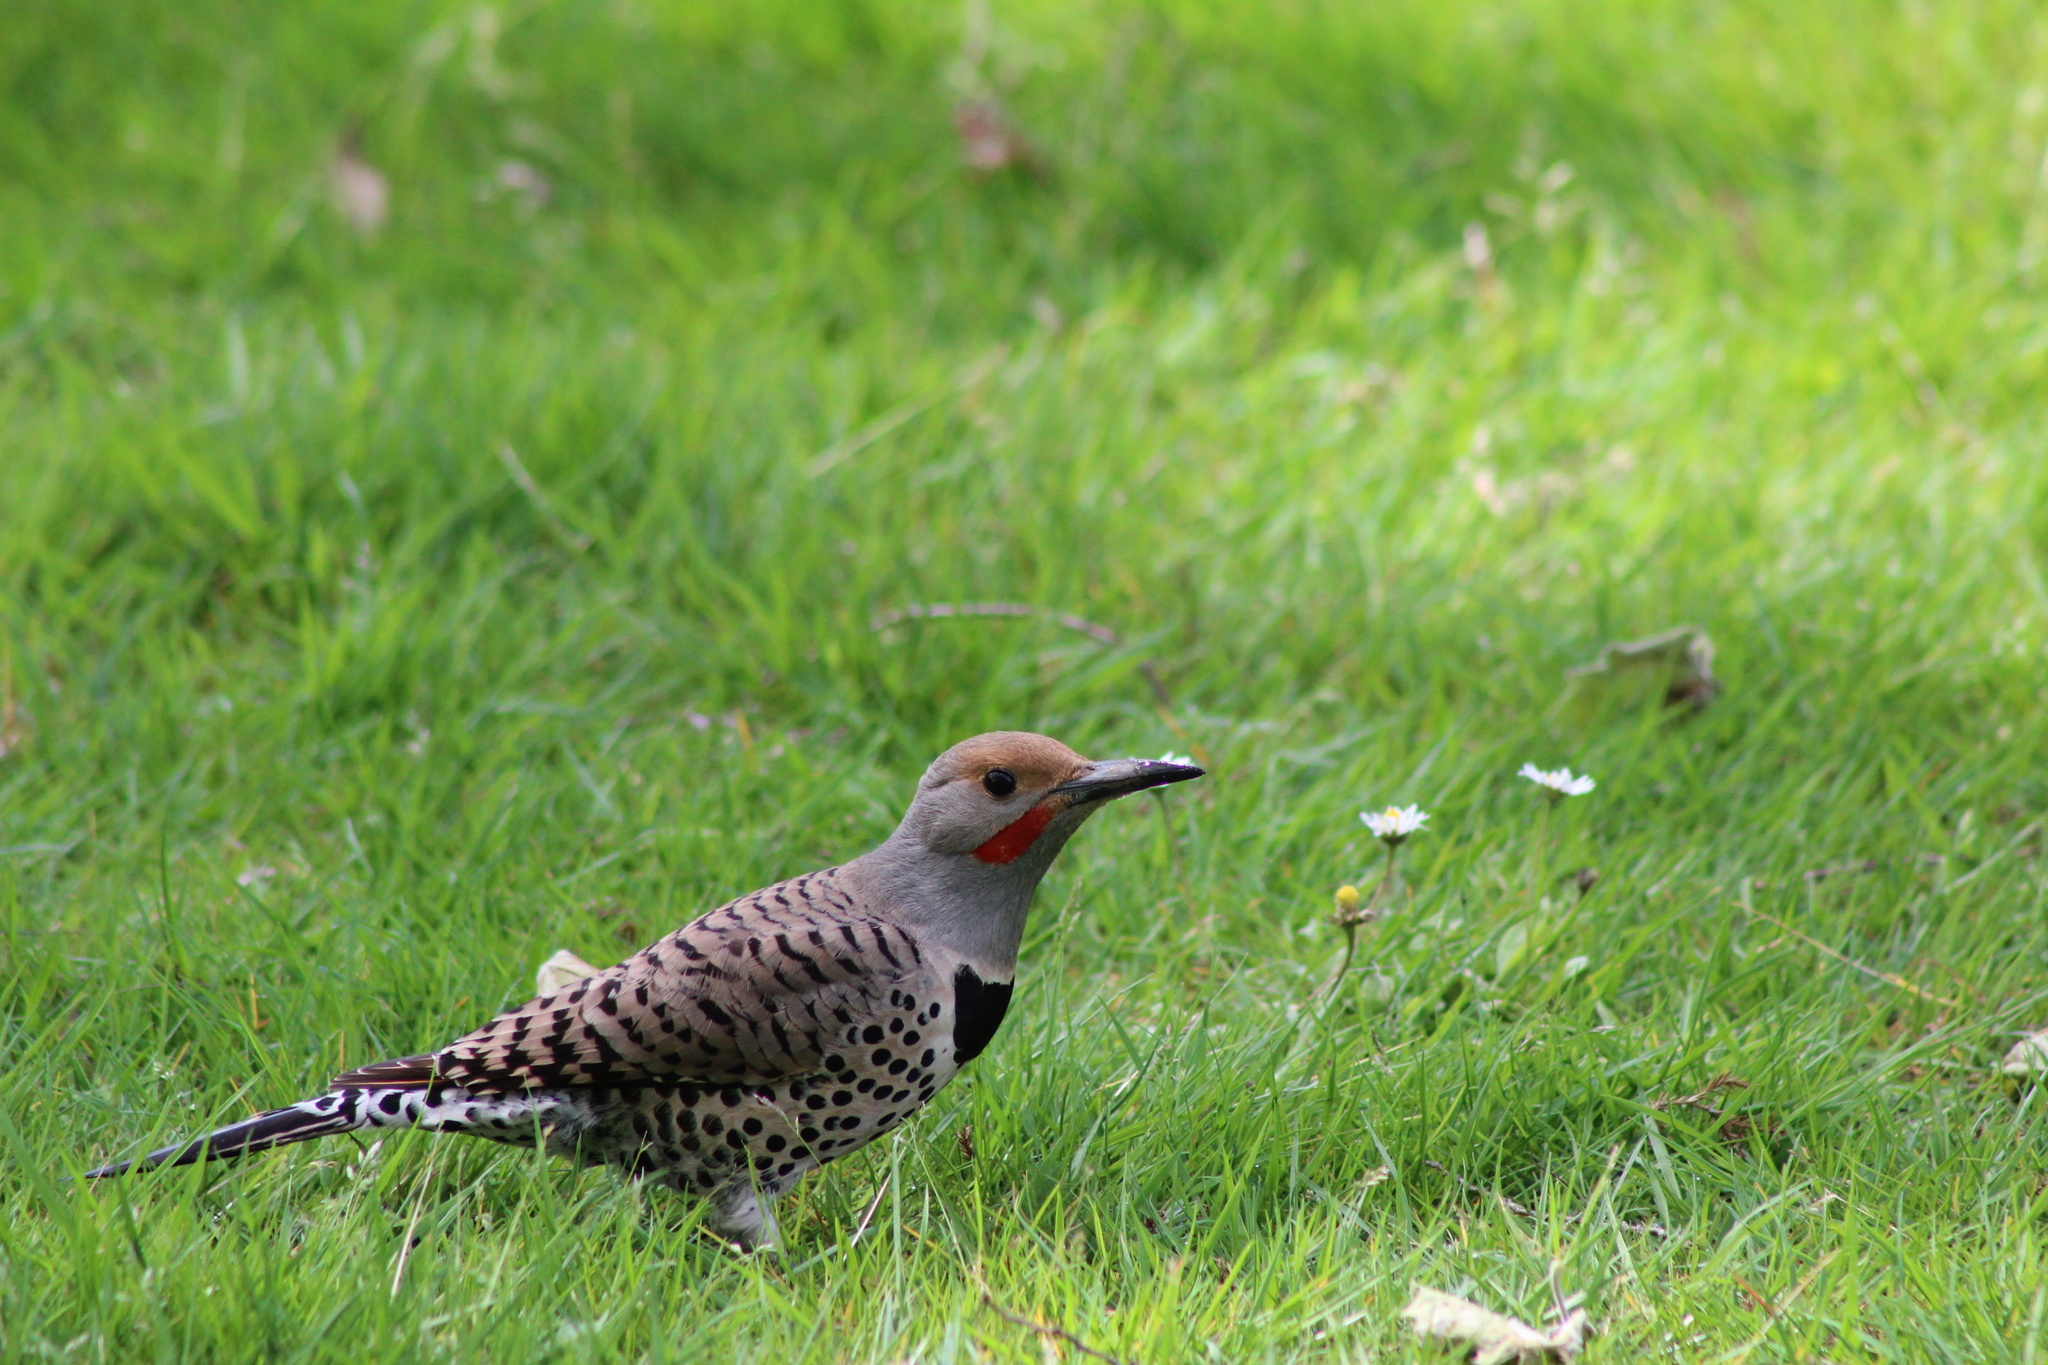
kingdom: Animalia
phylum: Chordata
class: Aves
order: Piciformes
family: Picidae
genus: Colaptes
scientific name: Colaptes auratus
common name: Northern flicker
